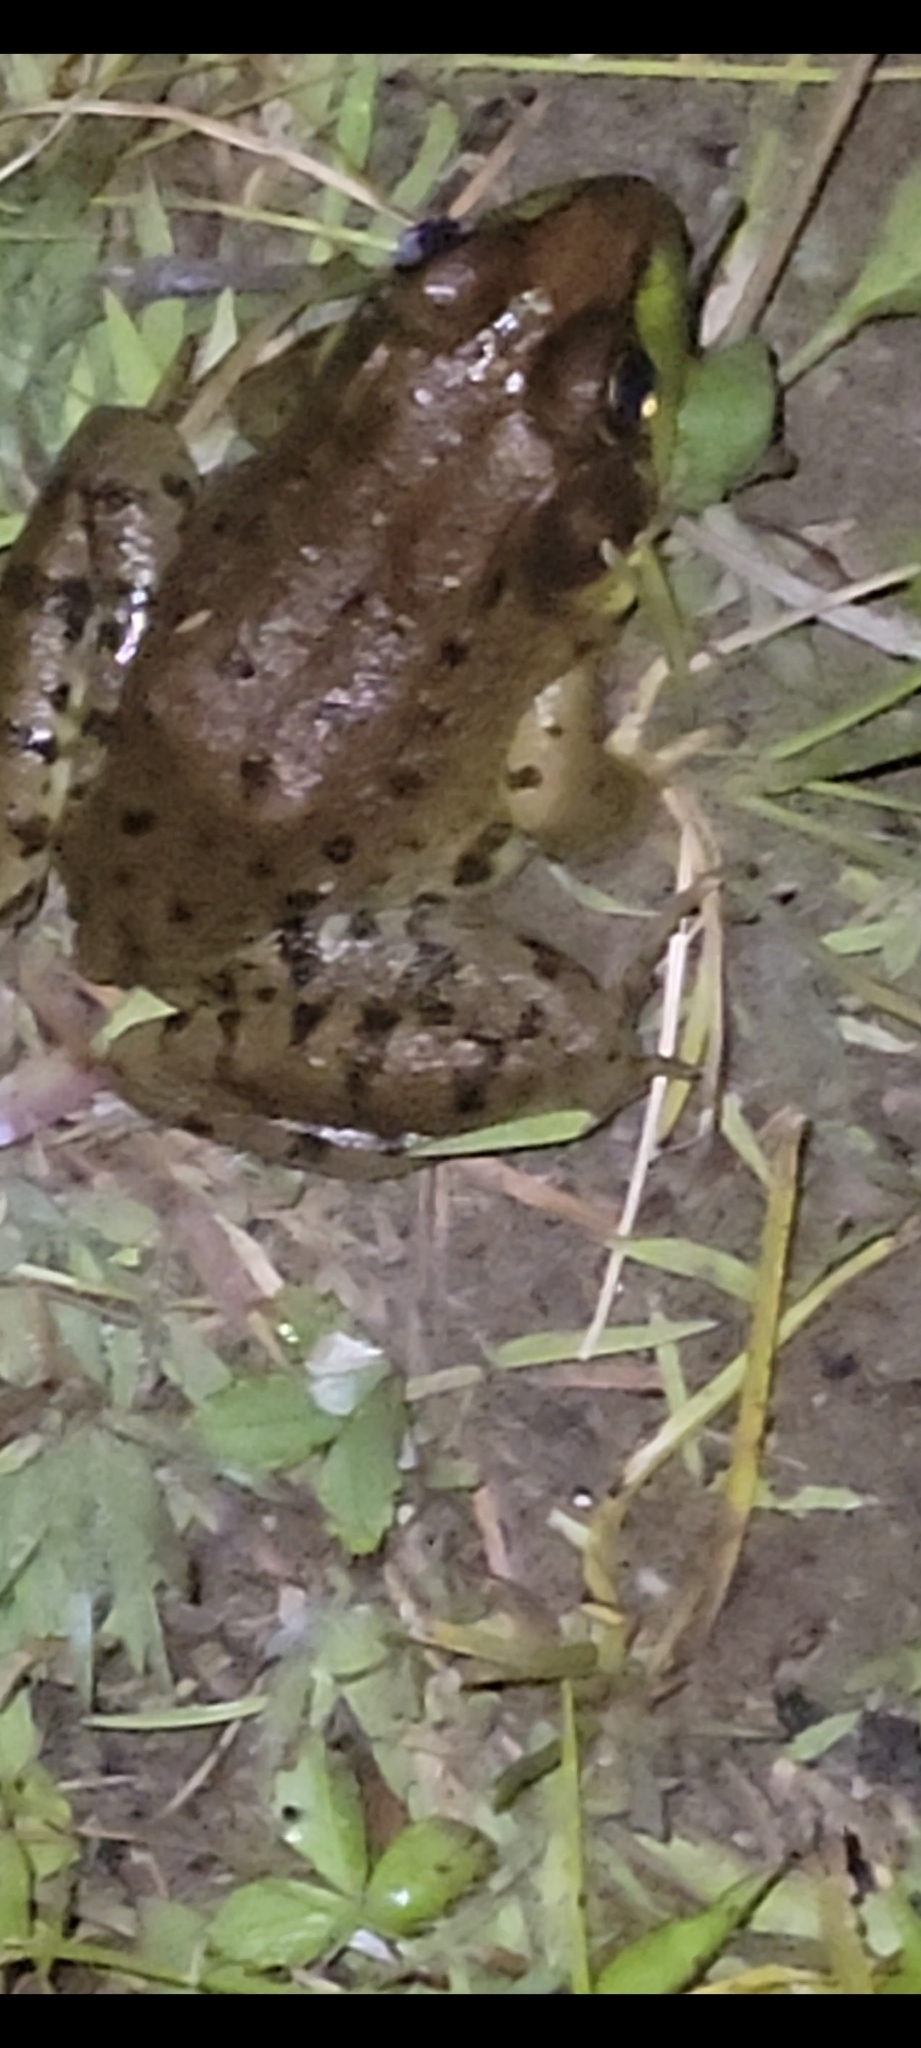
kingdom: Animalia
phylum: Chordata
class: Amphibia
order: Anura
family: Ranidae
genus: Lithobates
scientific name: Lithobates clamitans
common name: Green frog
